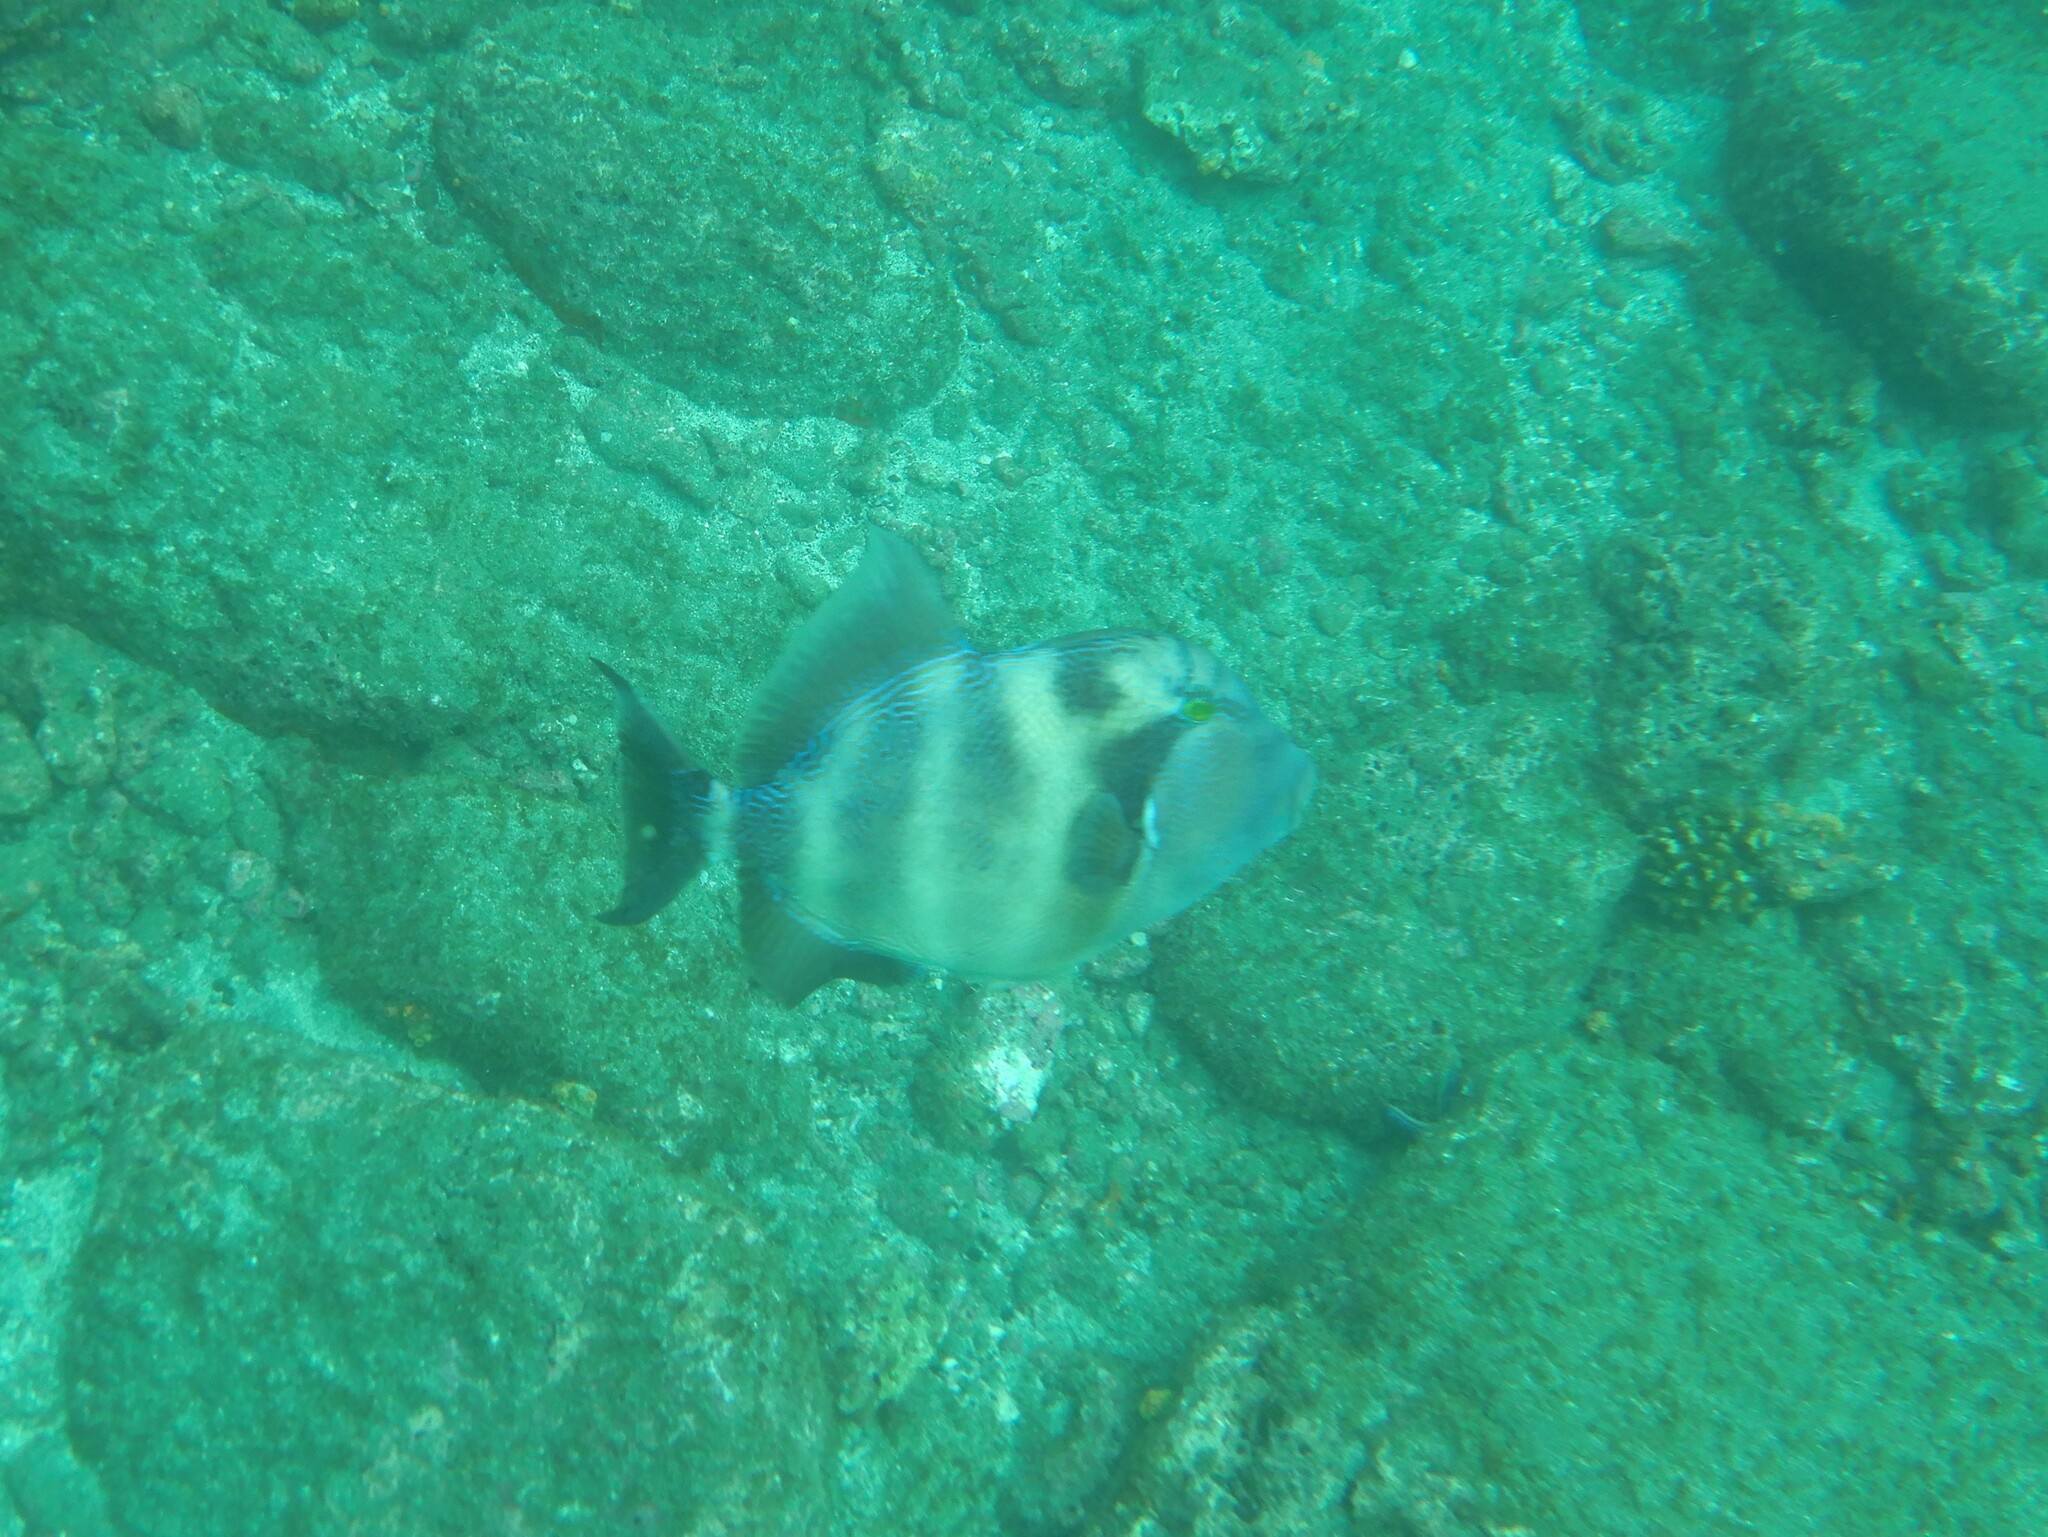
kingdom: Animalia
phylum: Chordata
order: Tetraodontiformes
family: Balistidae
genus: Pseudobalistes
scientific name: Pseudobalistes naufragium
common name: Blunthead triggerfish
